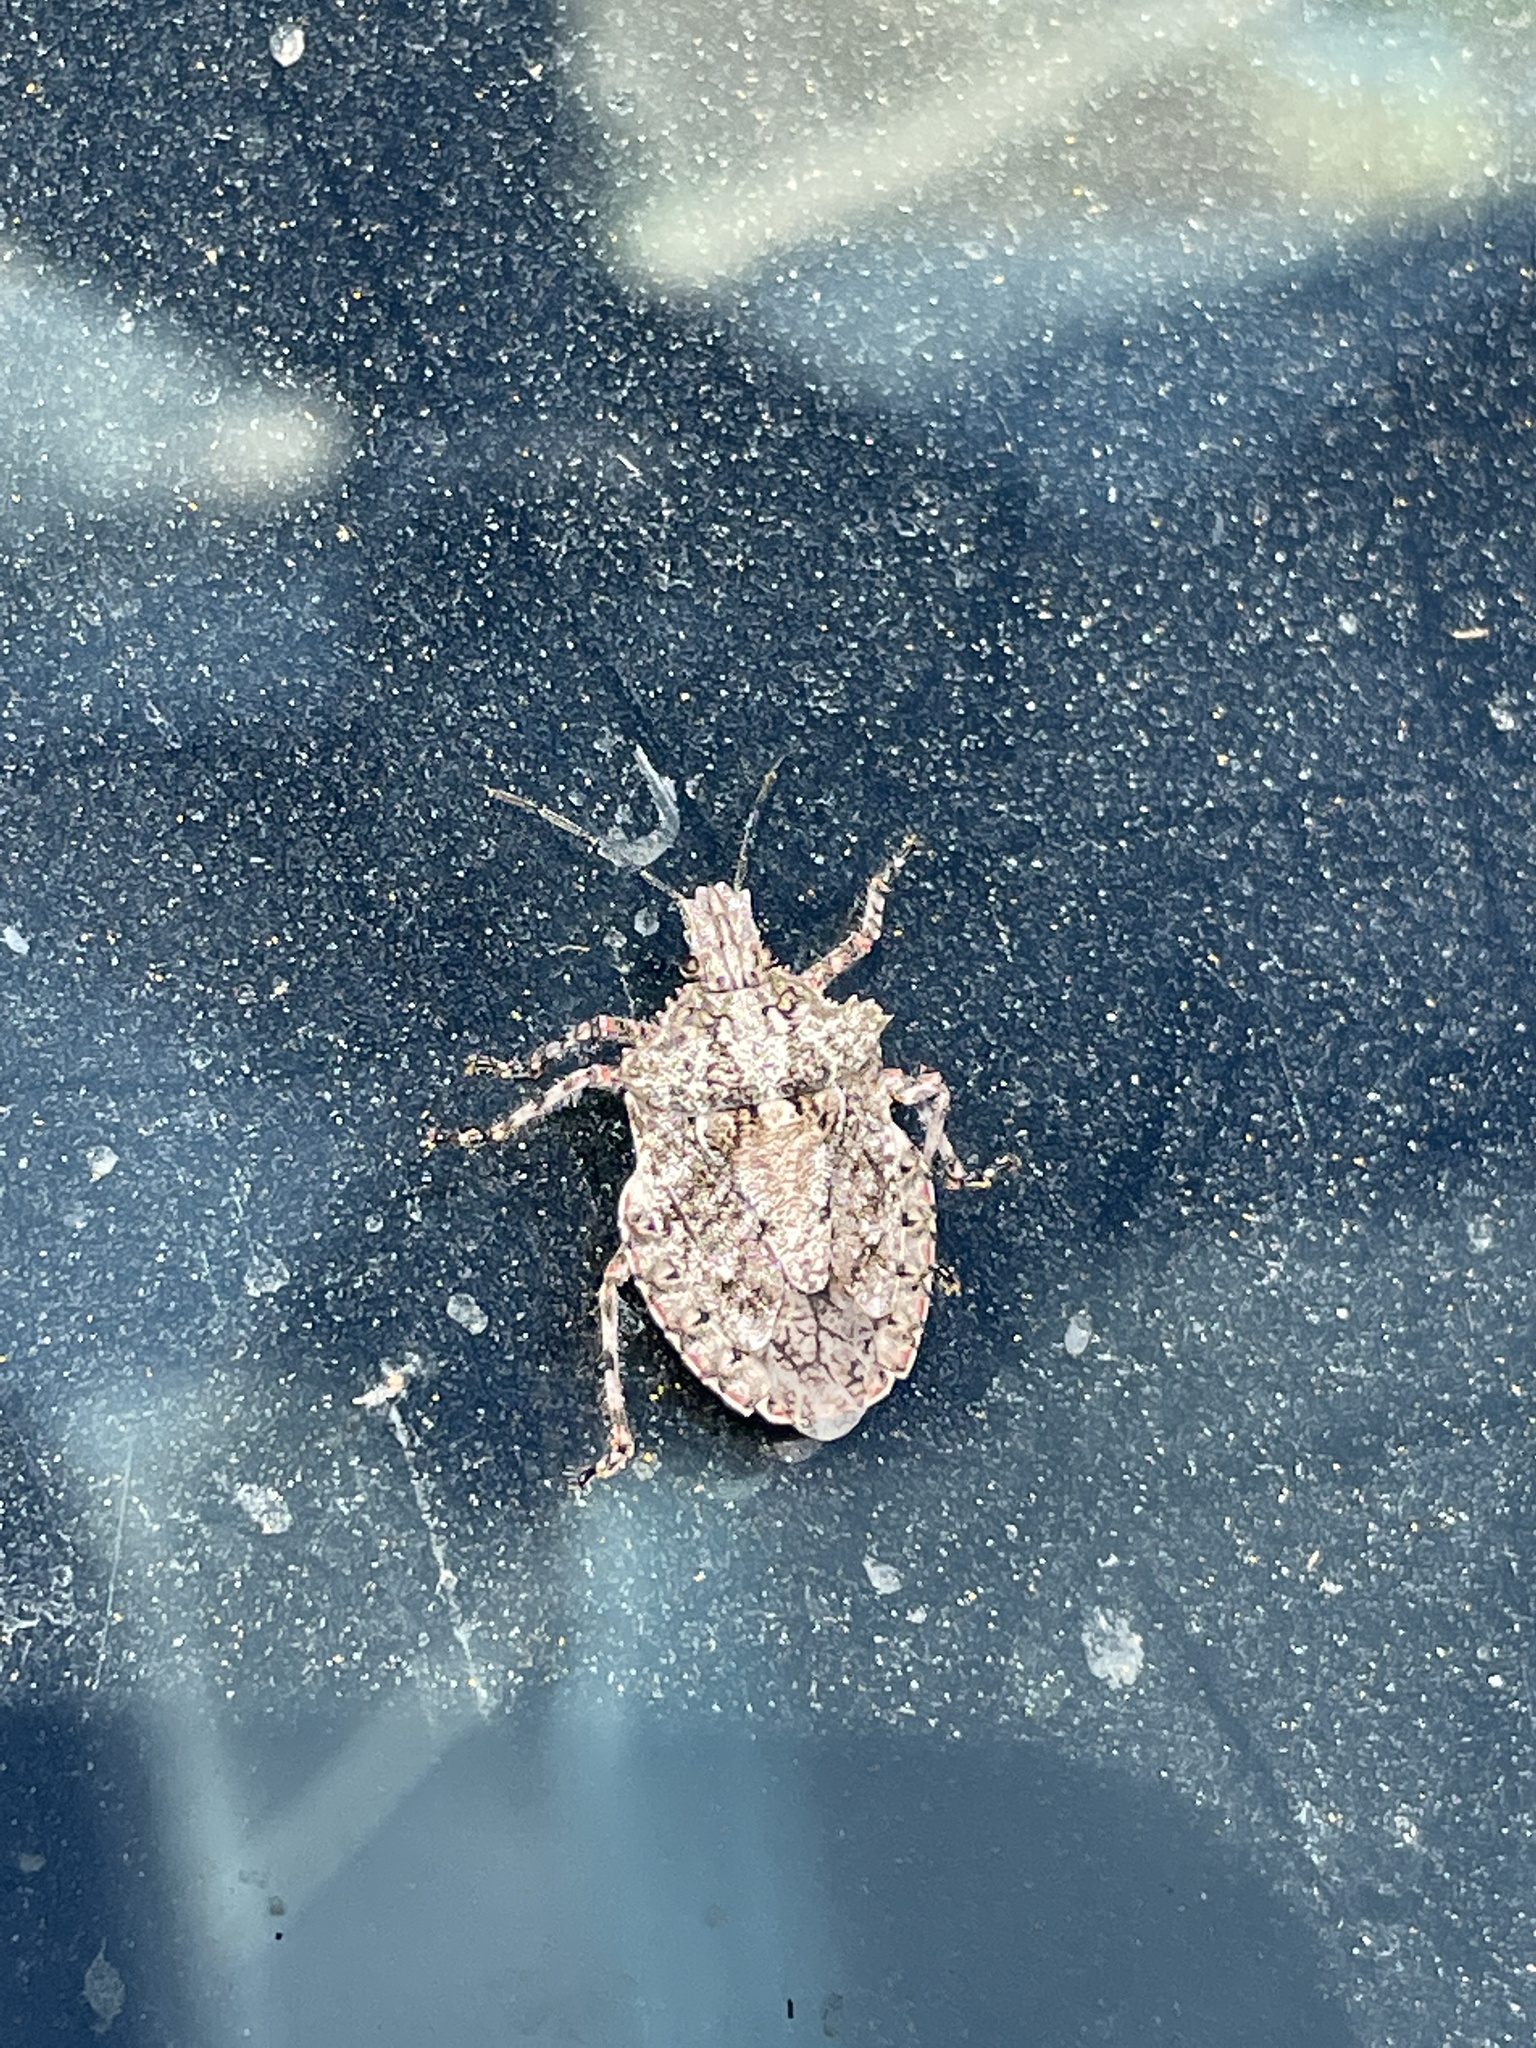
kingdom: Animalia
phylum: Arthropoda
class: Insecta
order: Hemiptera
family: Pentatomidae
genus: Brochymena
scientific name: Brochymena arborea
